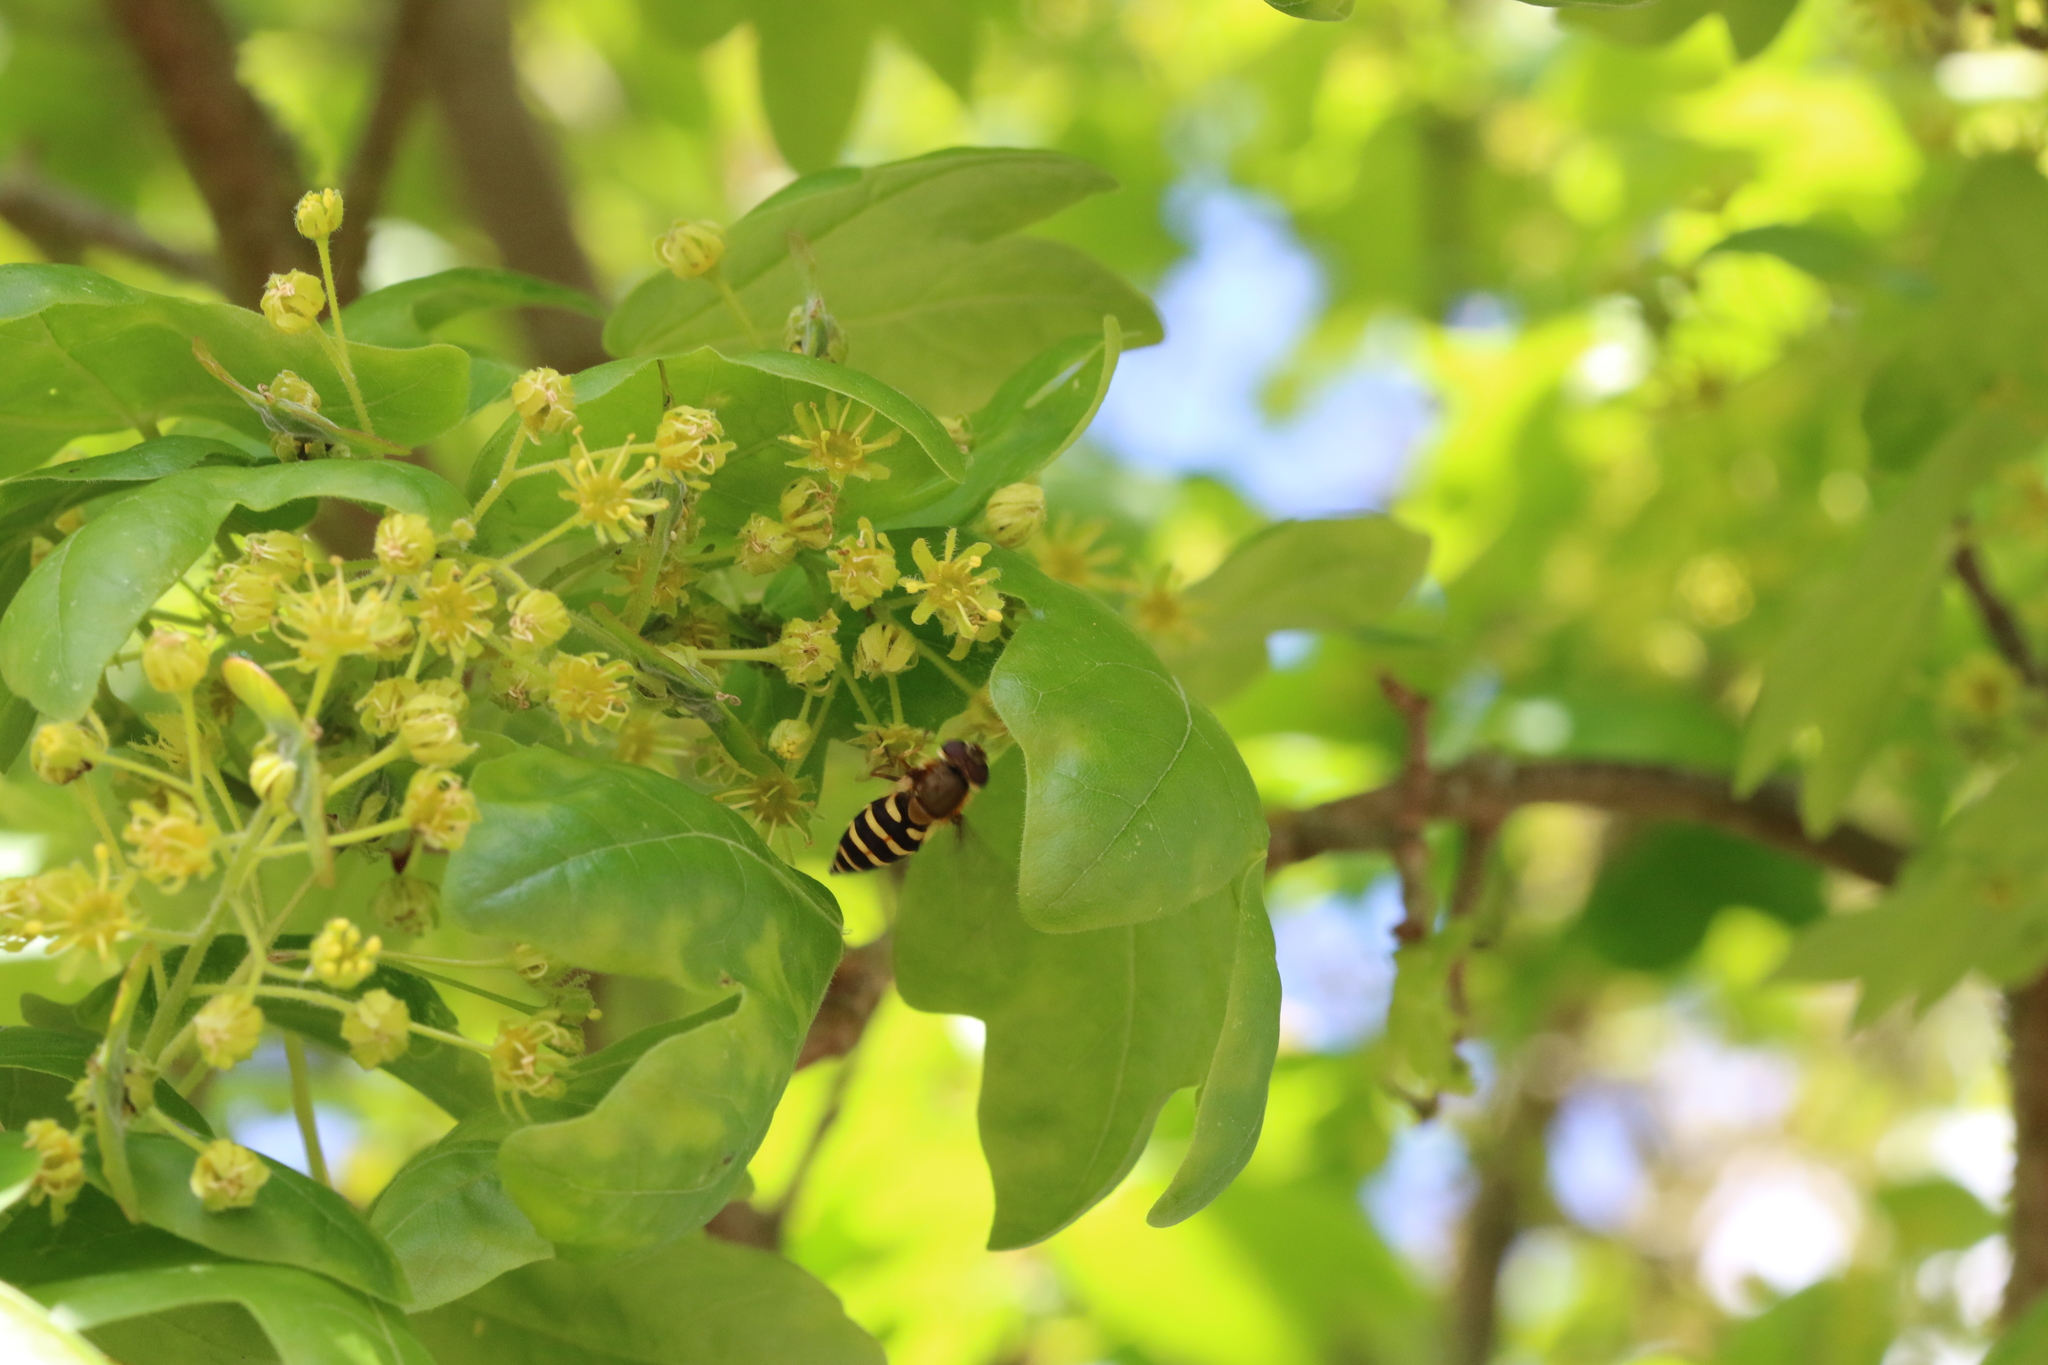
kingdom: Animalia
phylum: Arthropoda
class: Insecta
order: Diptera
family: Syrphidae
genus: Syrphus
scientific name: Syrphus
